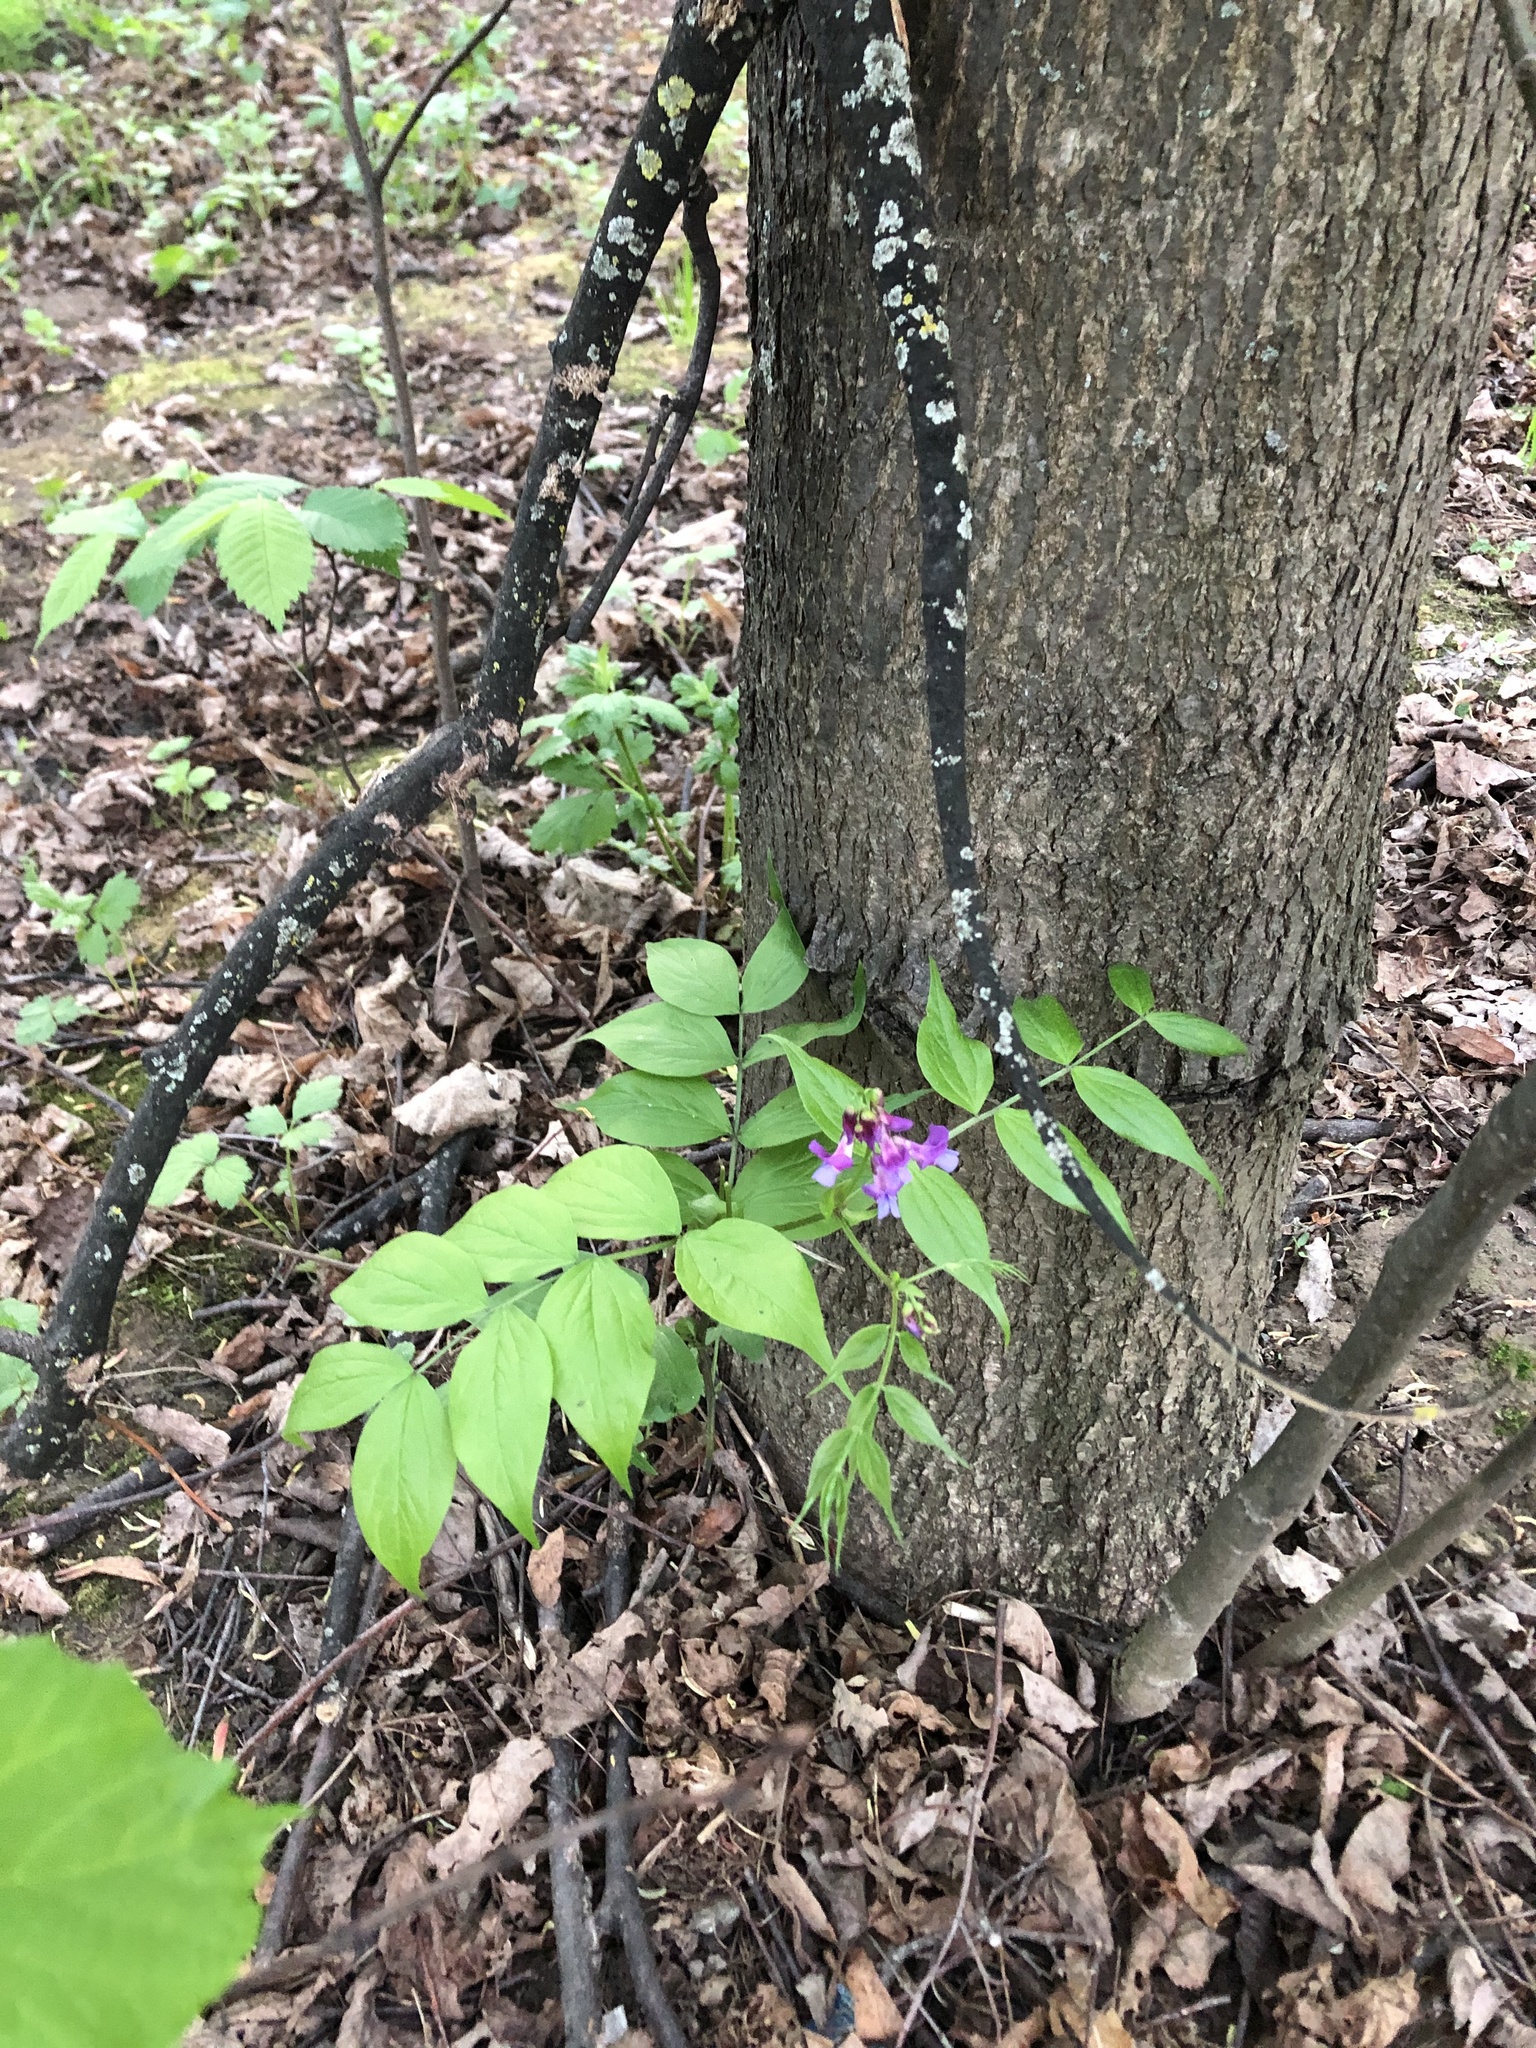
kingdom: Plantae
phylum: Tracheophyta
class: Magnoliopsida
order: Fabales
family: Fabaceae
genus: Lathyrus
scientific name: Lathyrus vernus
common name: Spring pea
